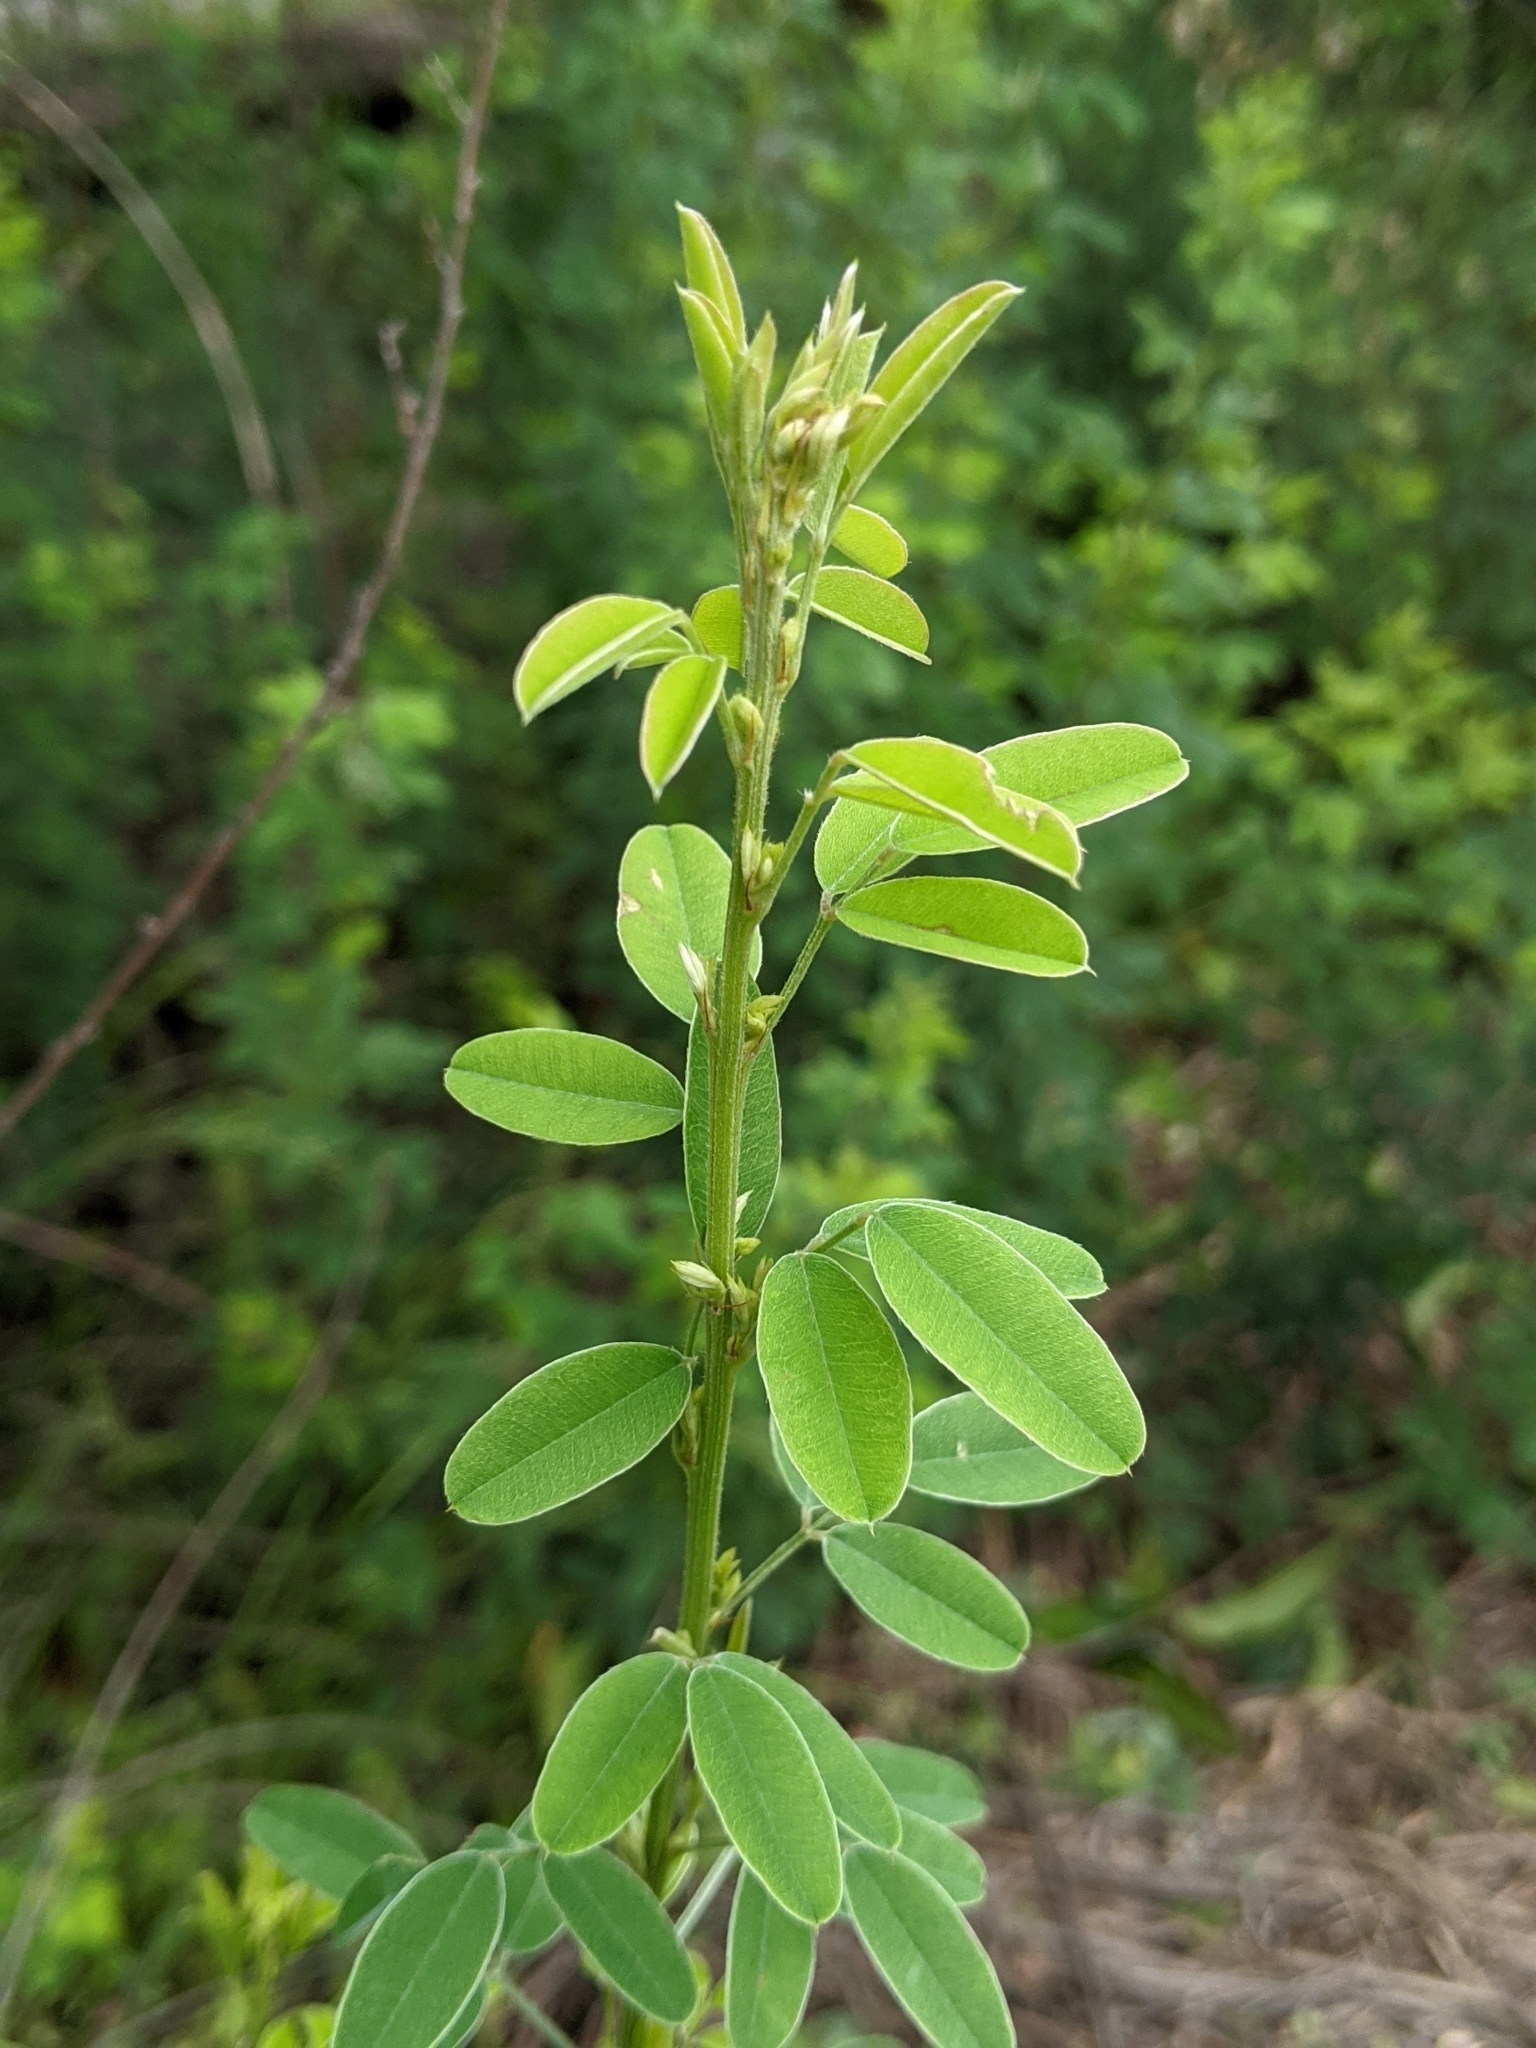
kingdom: Plantae
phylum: Tracheophyta
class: Magnoliopsida
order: Fabales
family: Fabaceae
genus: Lespedeza
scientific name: Lespedeza stuevei
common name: Tall bush-clover
